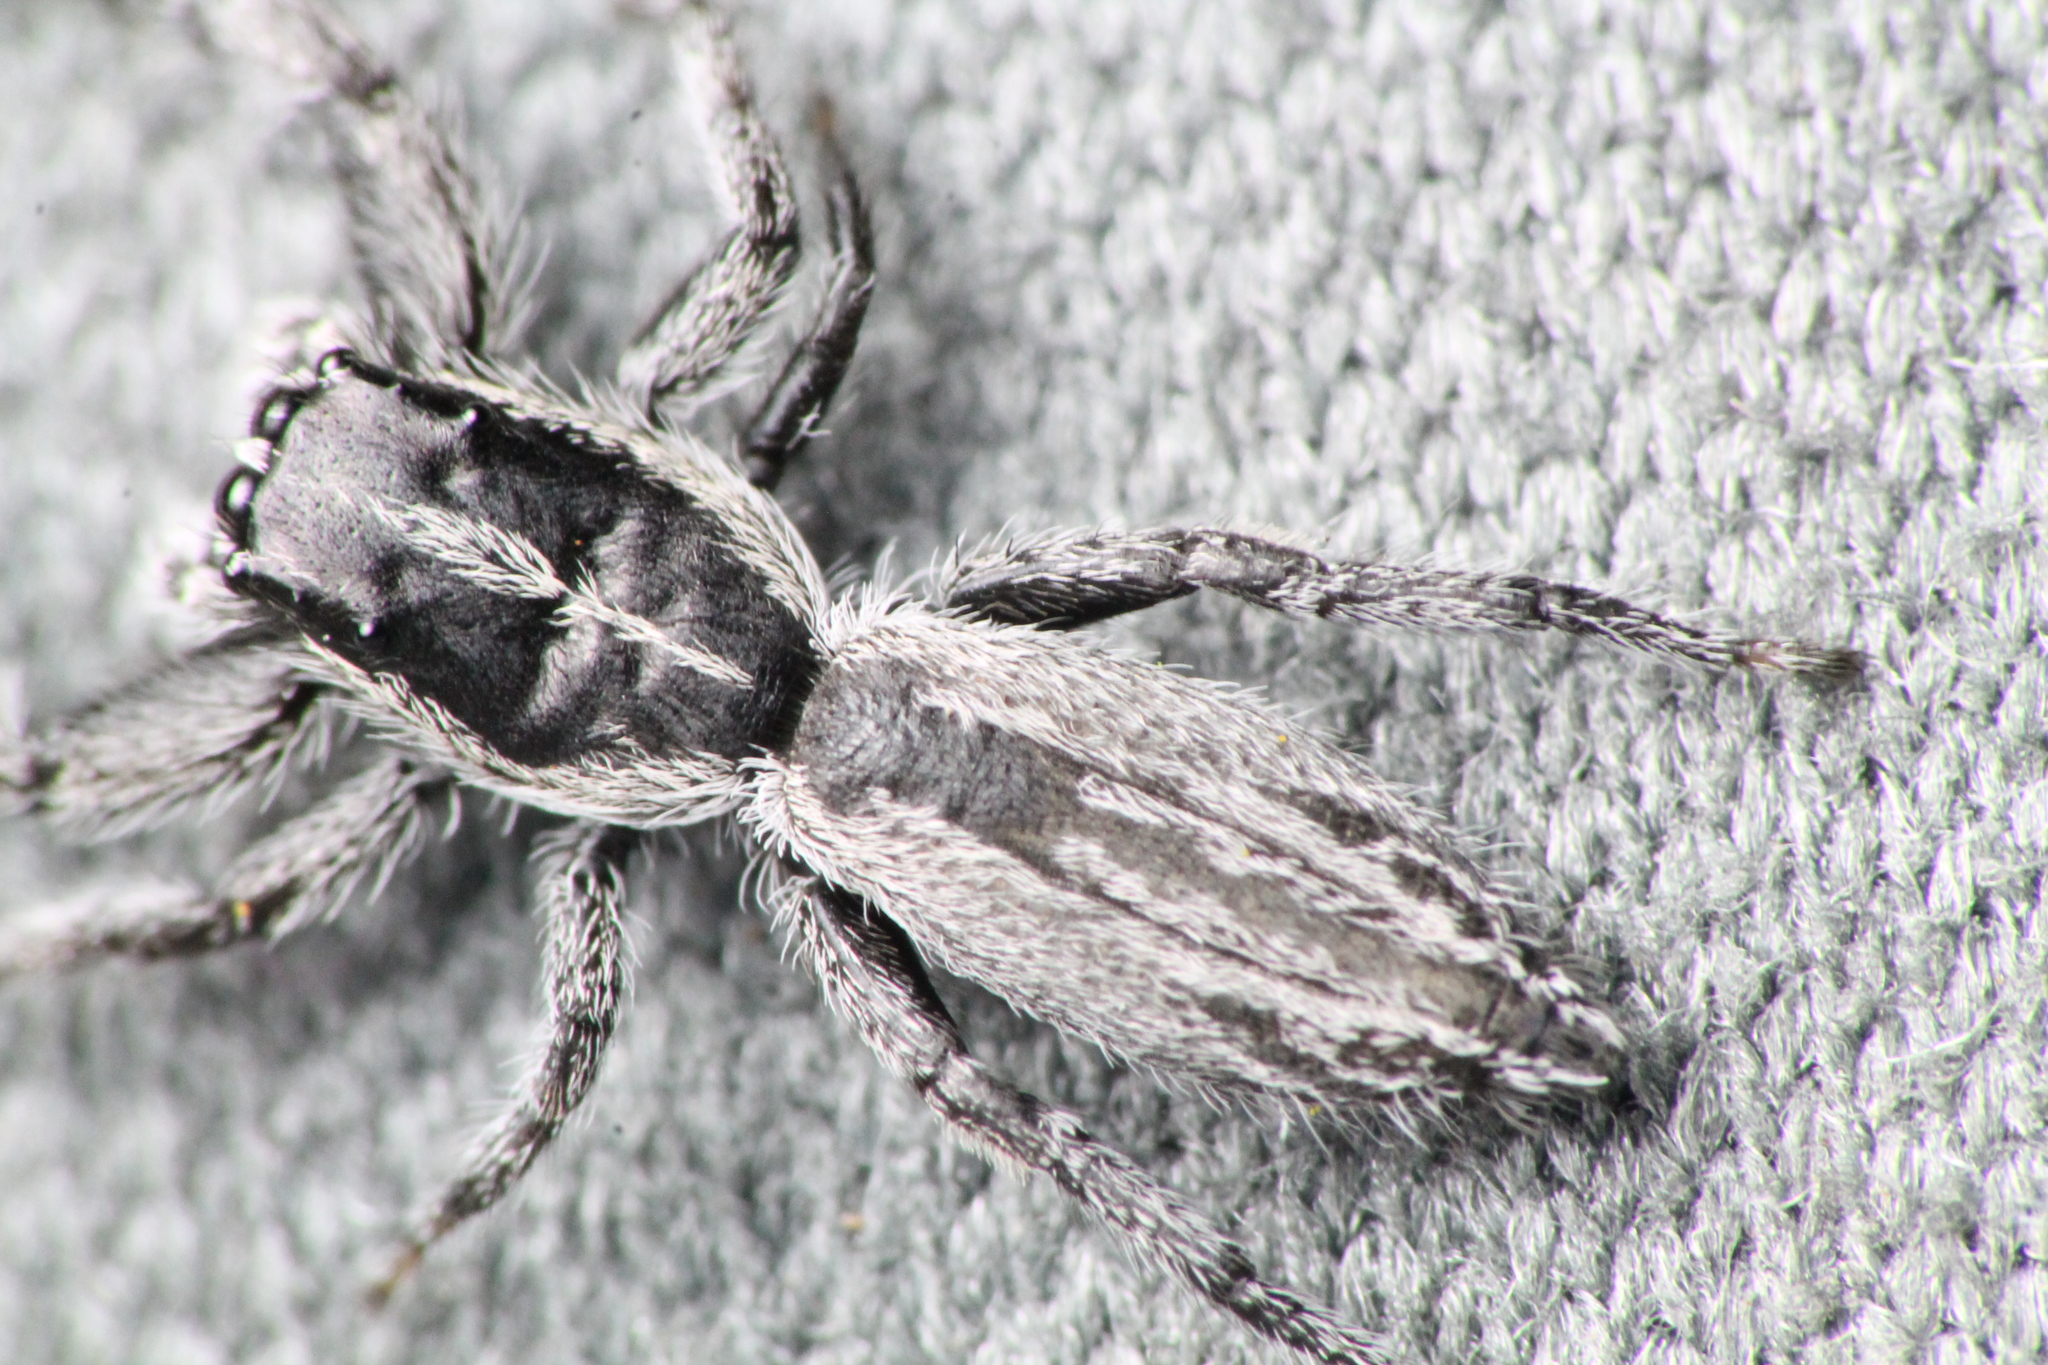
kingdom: Animalia
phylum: Arthropoda
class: Arachnida
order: Araneae
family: Salticidae
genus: Holoplatys
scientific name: Holoplatys apressus
